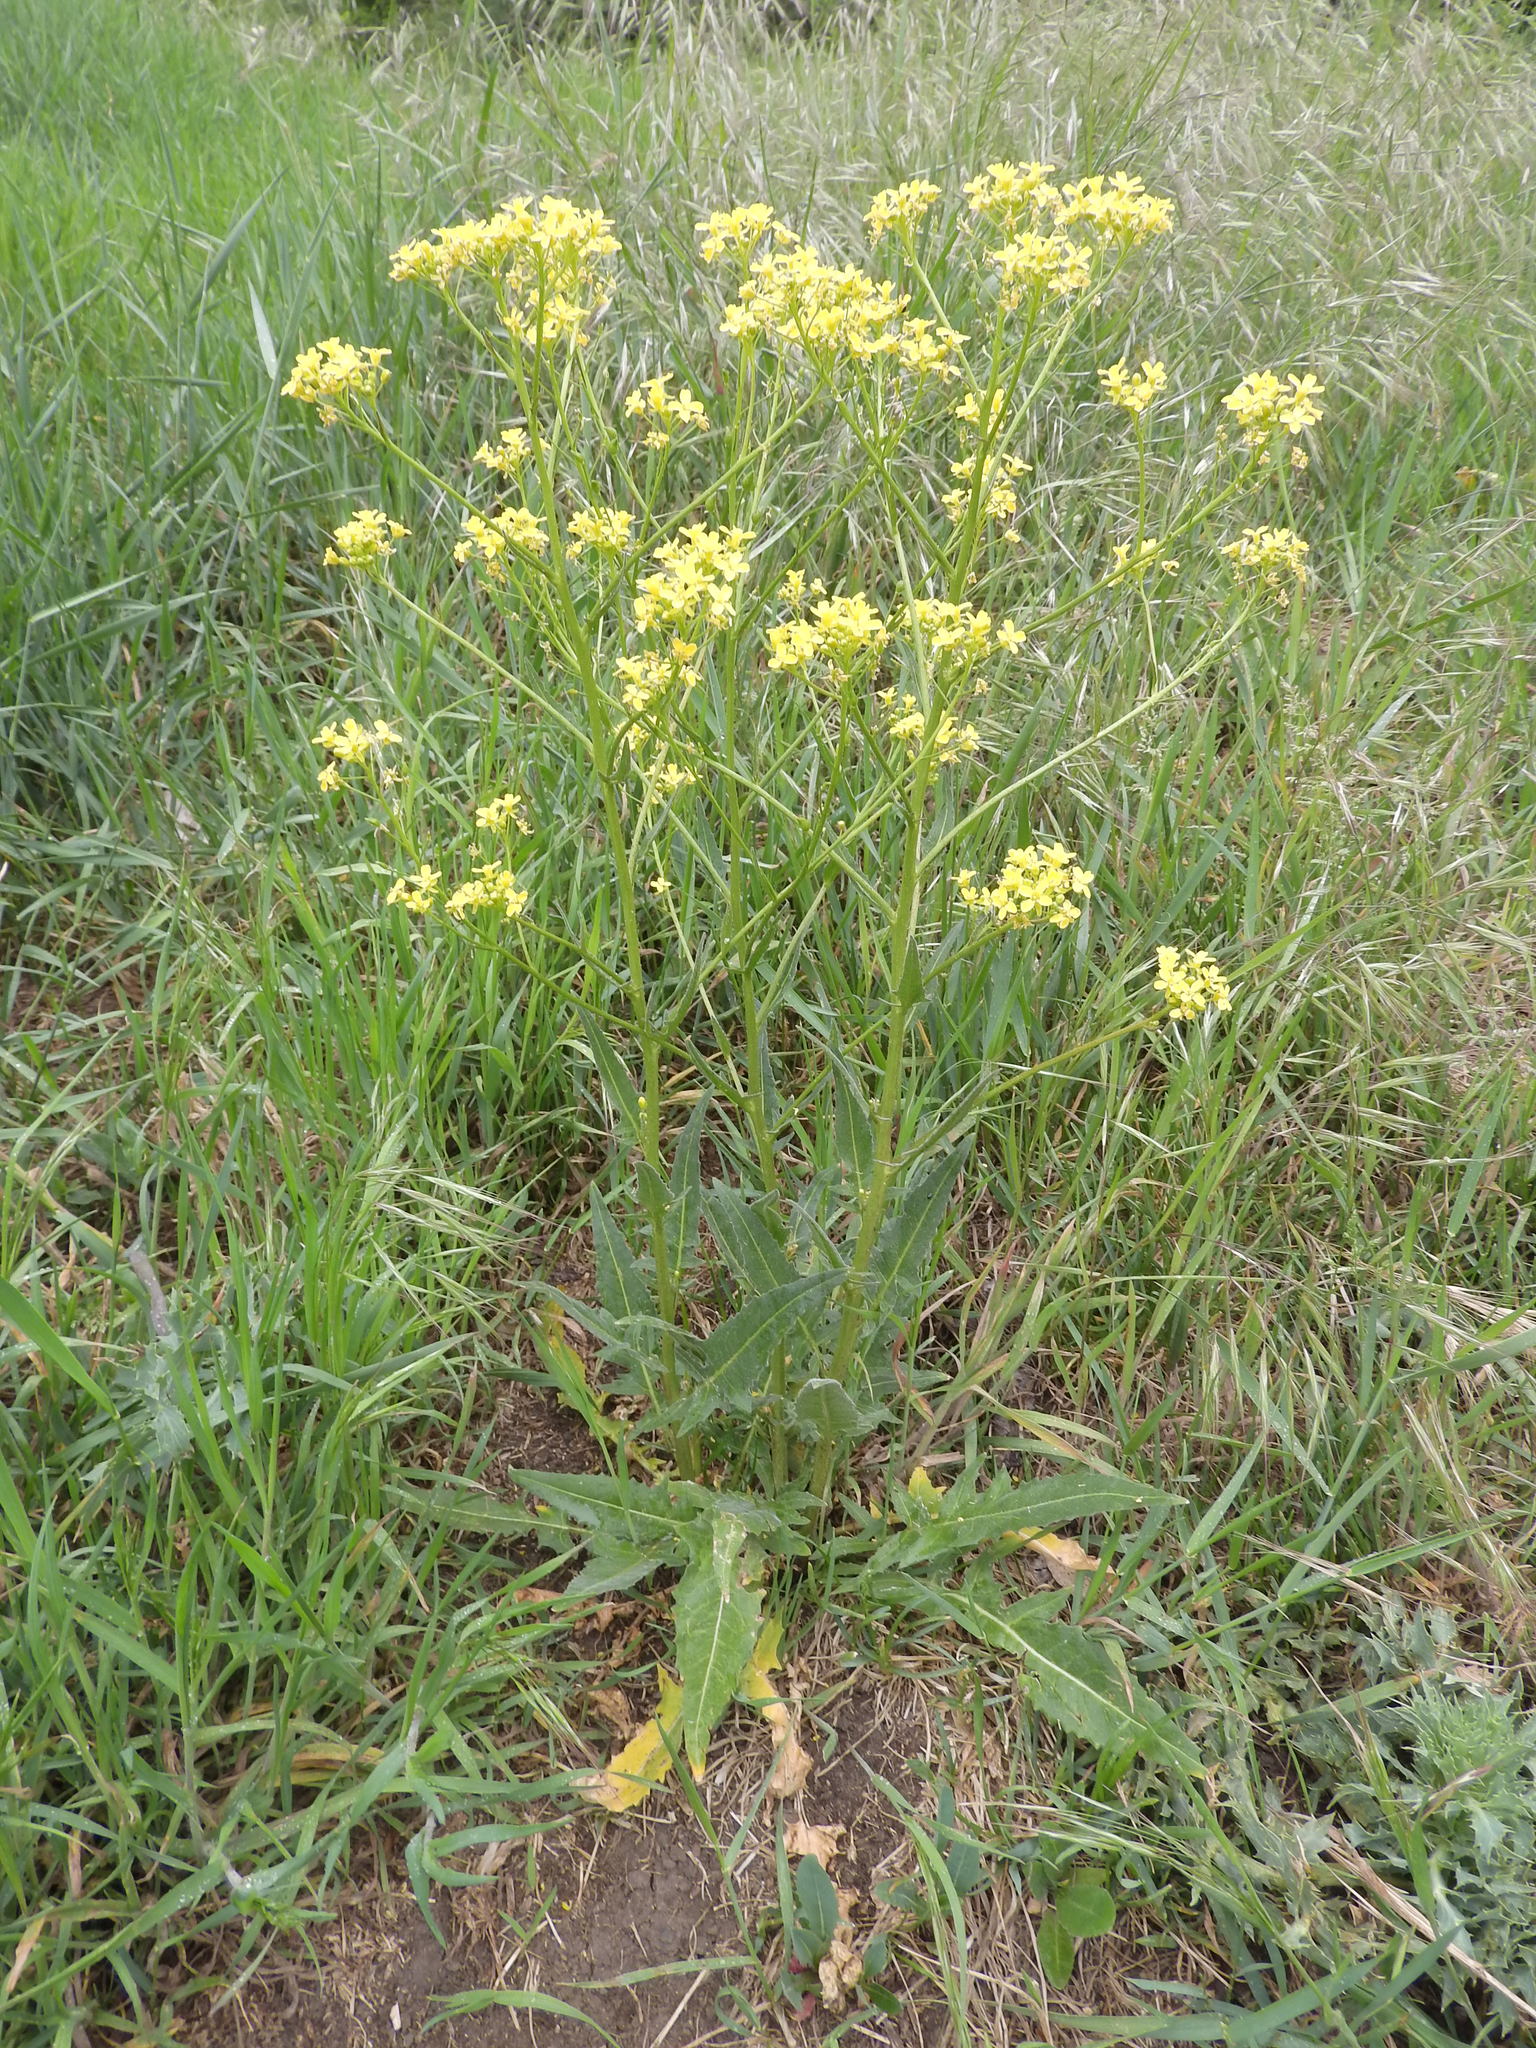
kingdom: Plantae
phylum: Tracheophyta
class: Magnoliopsida
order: Brassicales
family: Brassicaceae
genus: Bunias
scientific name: Bunias orientalis
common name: Warty-cabbage
